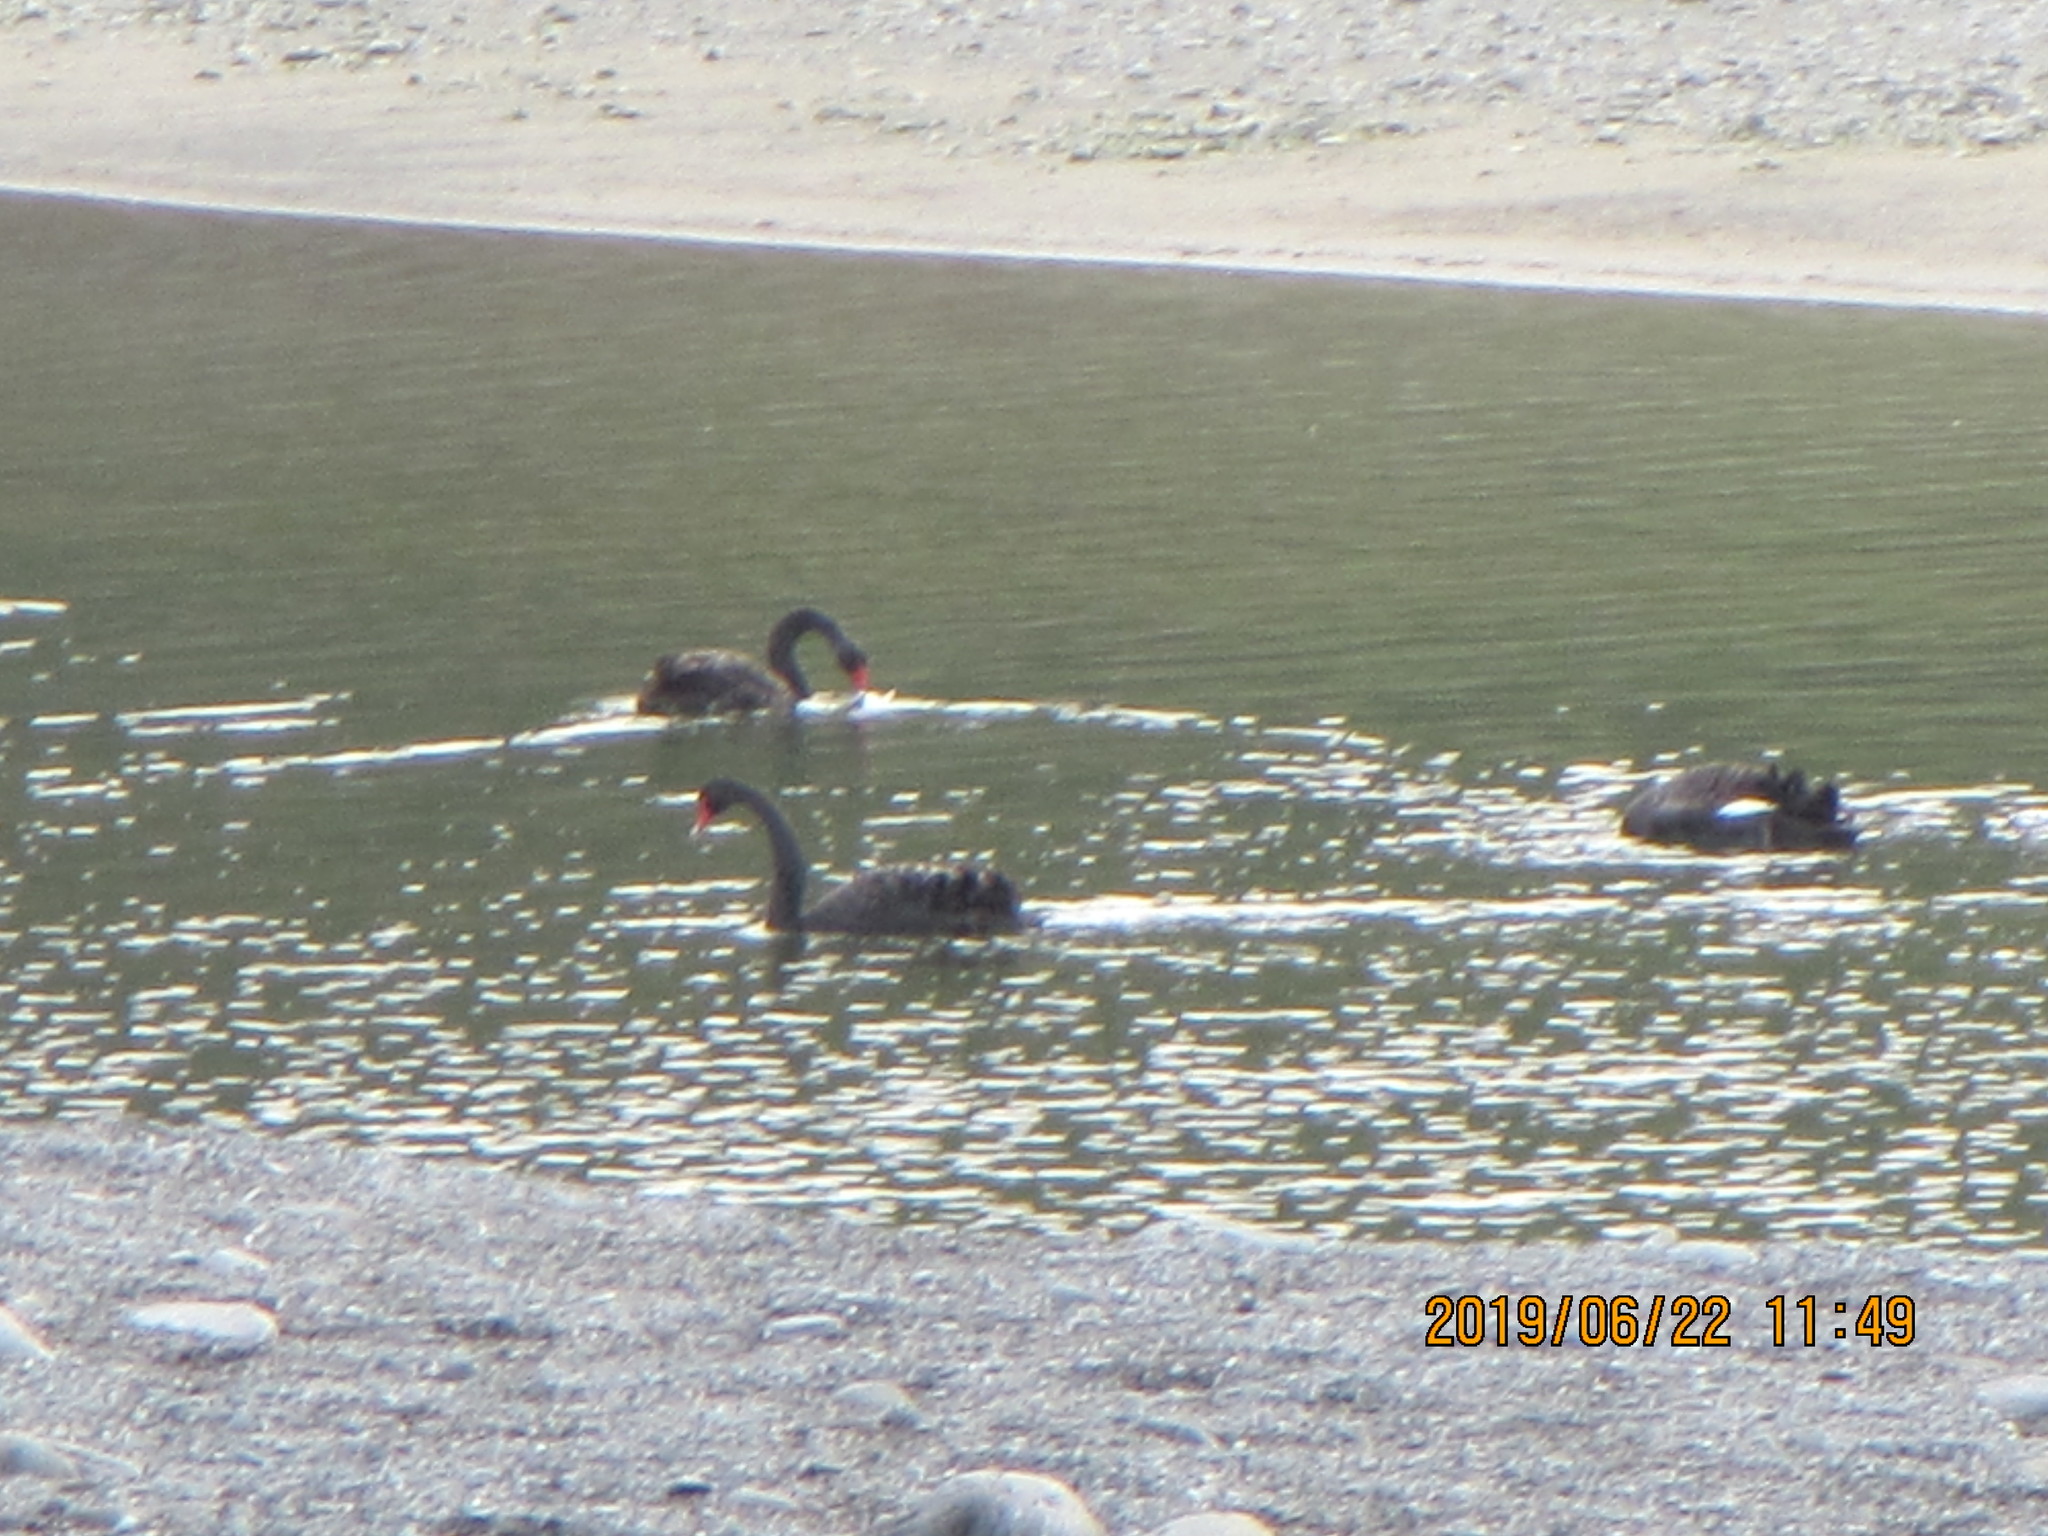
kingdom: Animalia
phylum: Chordata
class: Aves
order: Anseriformes
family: Anatidae
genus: Cygnus
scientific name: Cygnus atratus
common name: Black swan
